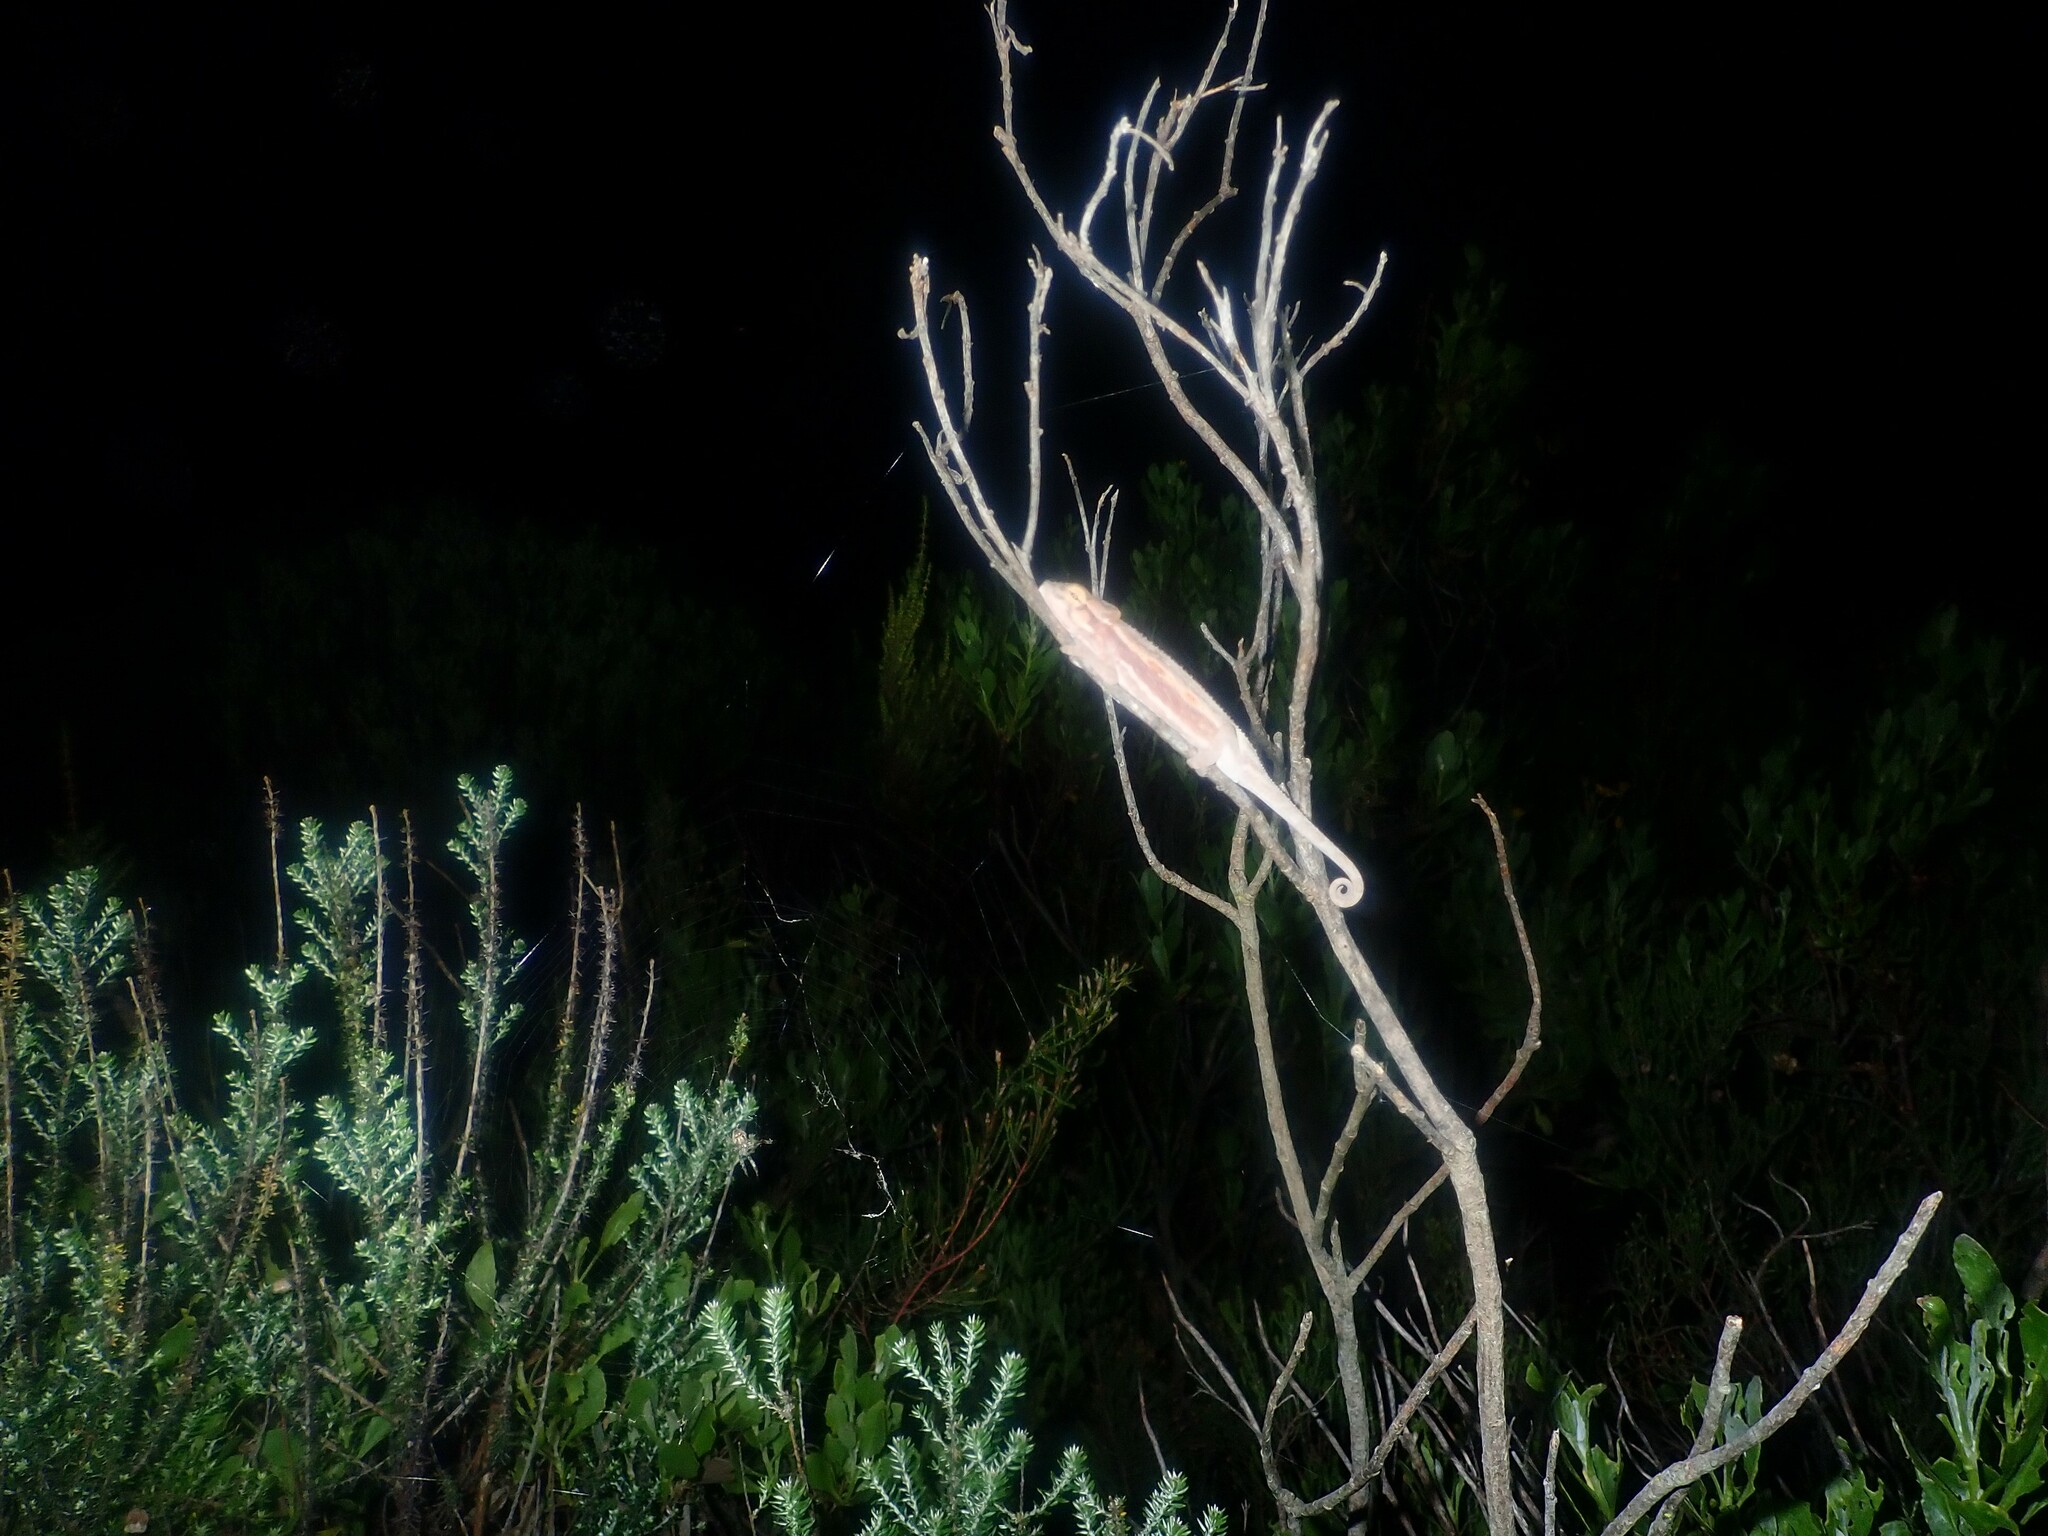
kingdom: Animalia
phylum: Chordata
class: Squamata
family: Chamaeleonidae
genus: Bradypodion
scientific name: Bradypodion pumilum
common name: Cape dwarf chameleon
